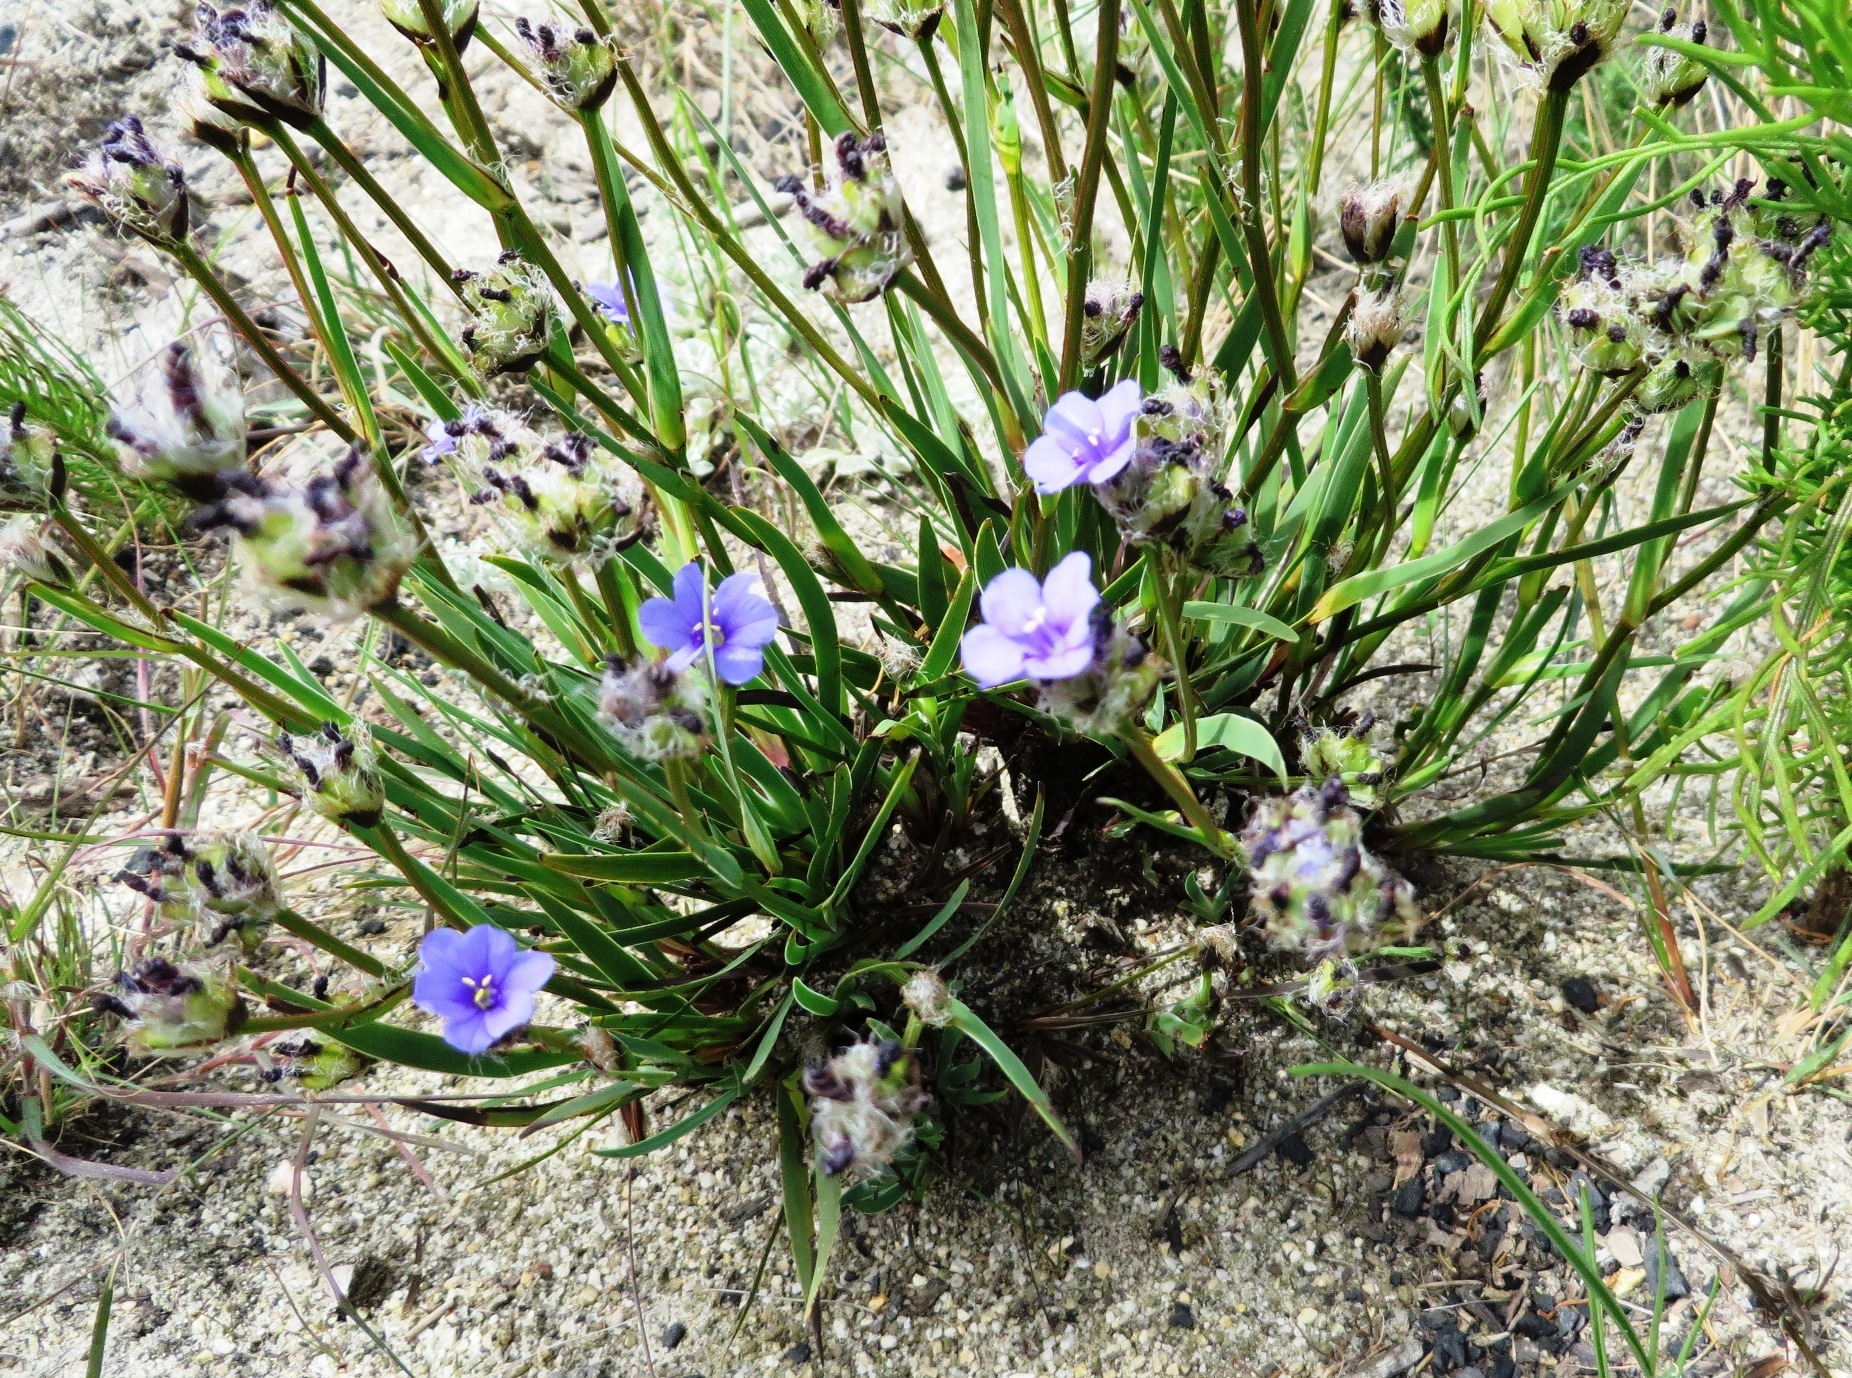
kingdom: Plantae
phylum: Tracheophyta
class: Liliopsida
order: Asparagales
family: Iridaceae
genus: Aristea
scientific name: Aristea africana
